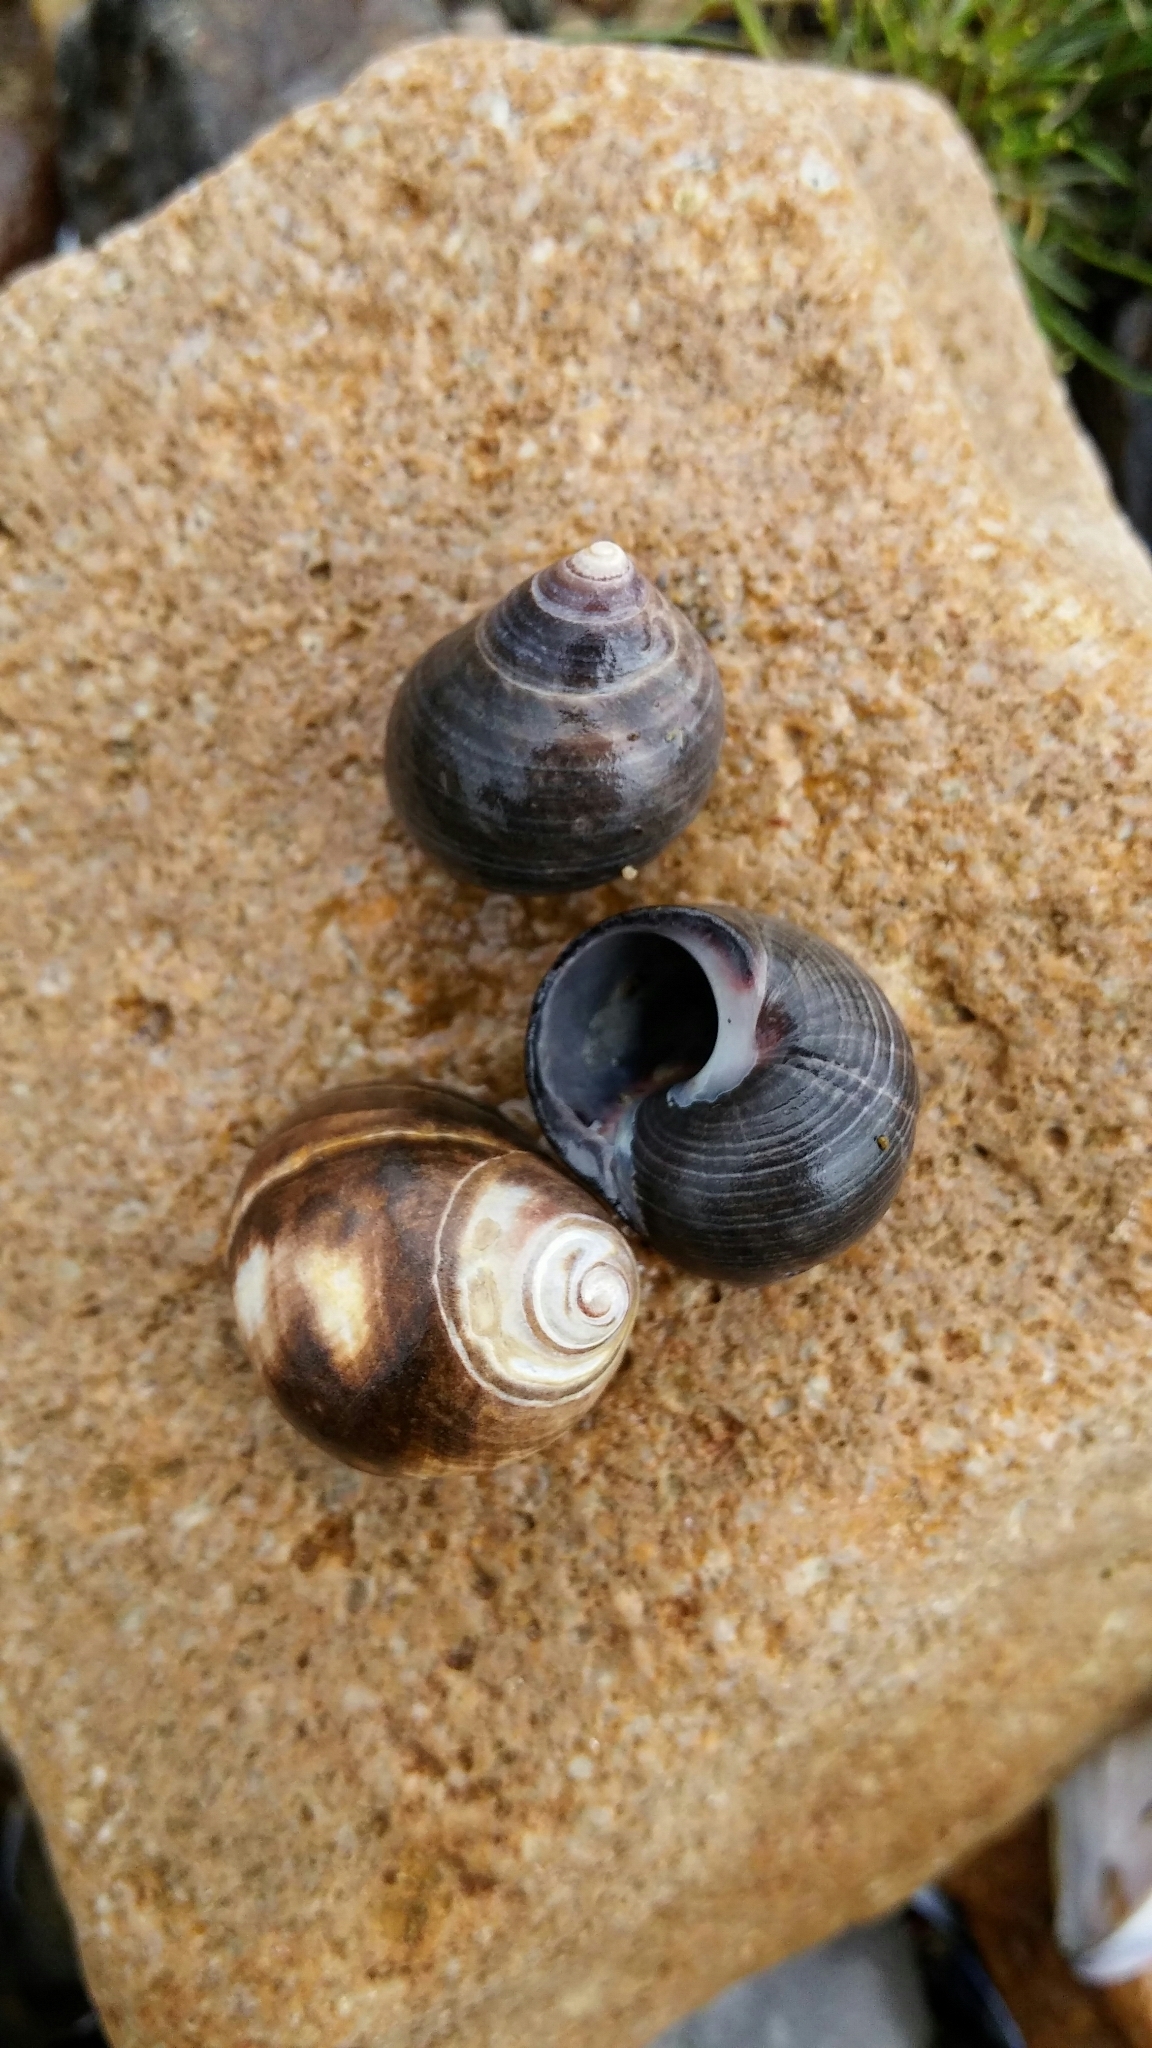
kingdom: Animalia
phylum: Mollusca
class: Gastropoda
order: Littorinimorpha
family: Littorinidae
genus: Littorina
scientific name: Littorina littorea
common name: Common periwinkle
